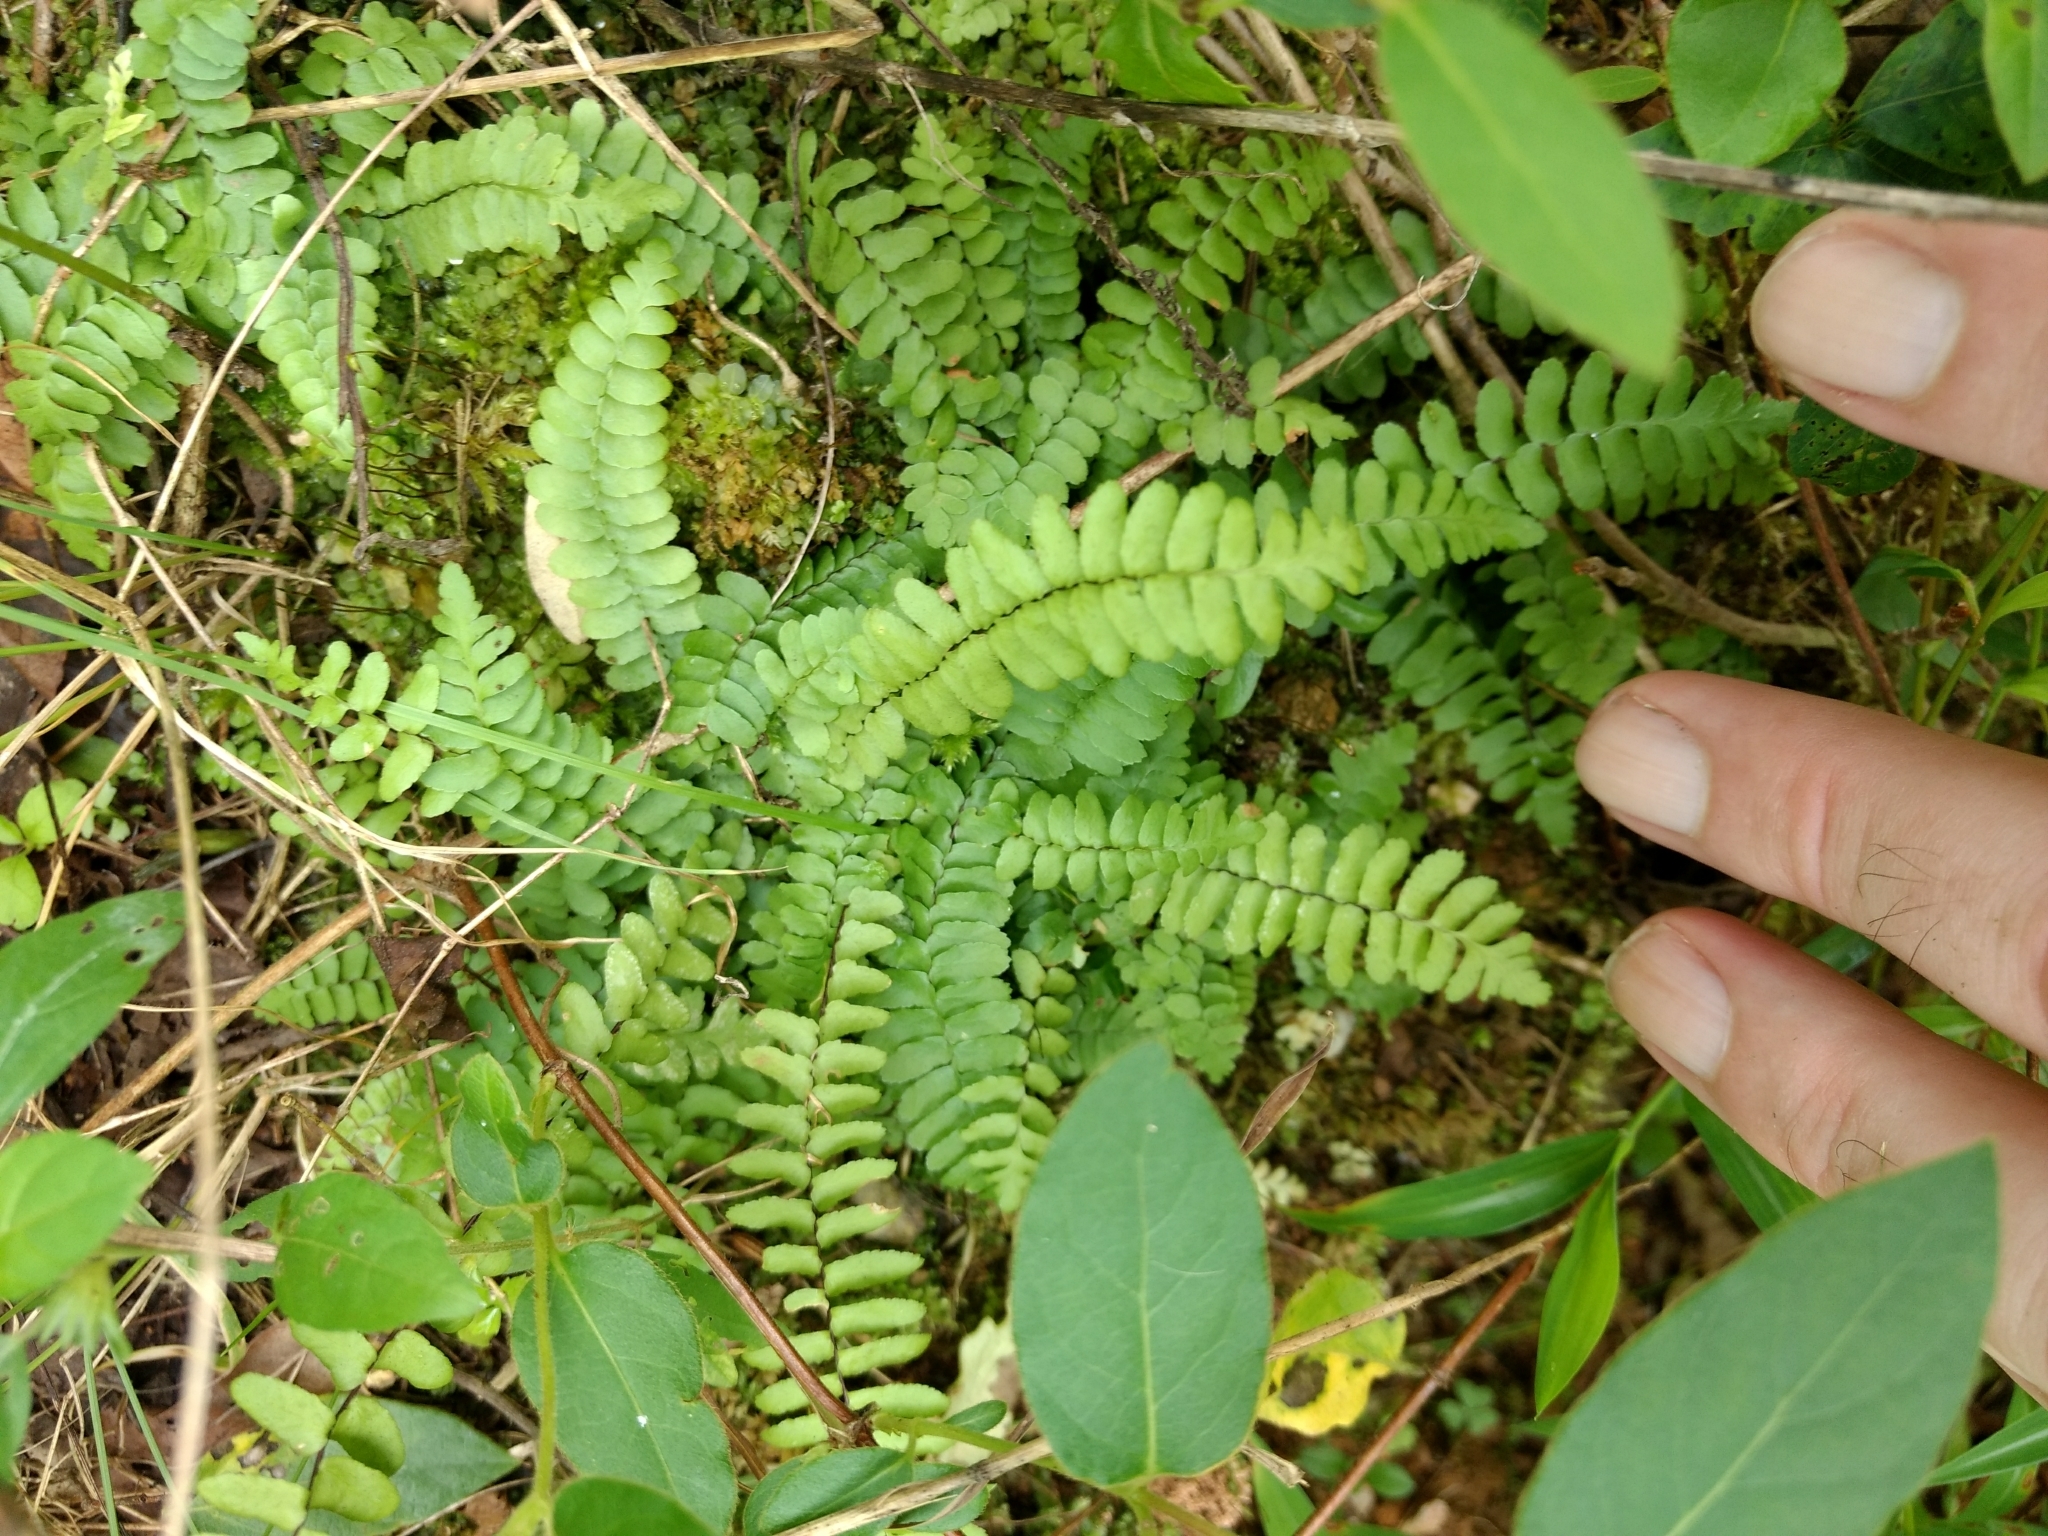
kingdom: Plantae
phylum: Tracheophyta
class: Polypodiopsida
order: Polypodiales
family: Aspleniaceae
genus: Asplenium
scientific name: Asplenium platyneuron
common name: Ebony spleenwort
